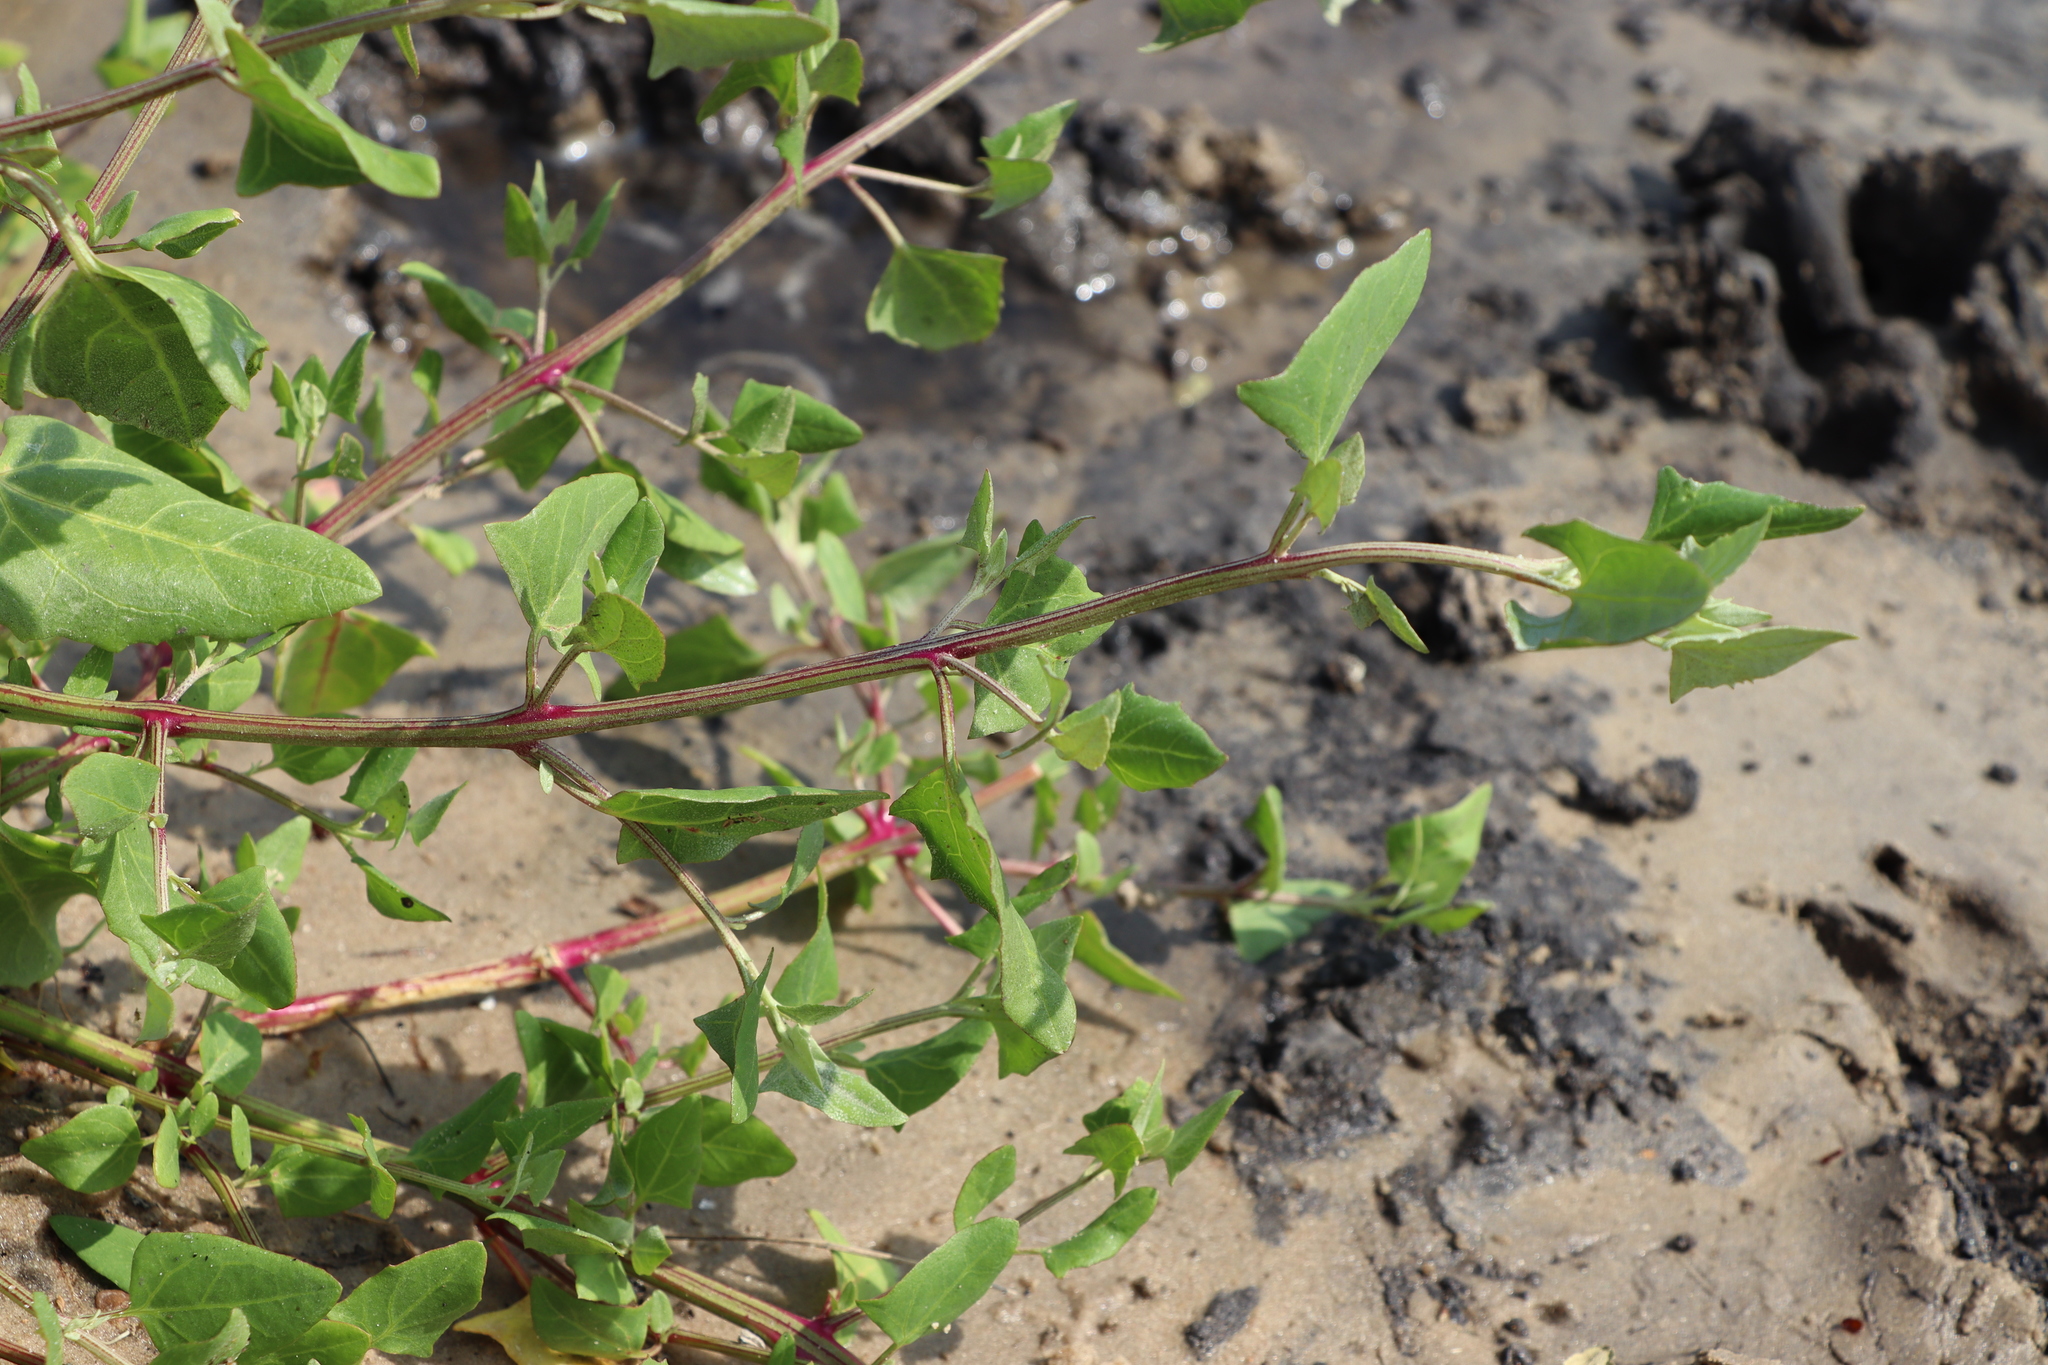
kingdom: Plantae
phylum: Tracheophyta
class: Magnoliopsida
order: Caryophyllales
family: Amaranthaceae
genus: Atriplex
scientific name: Atriplex prostrata
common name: Spear-leaved orache
